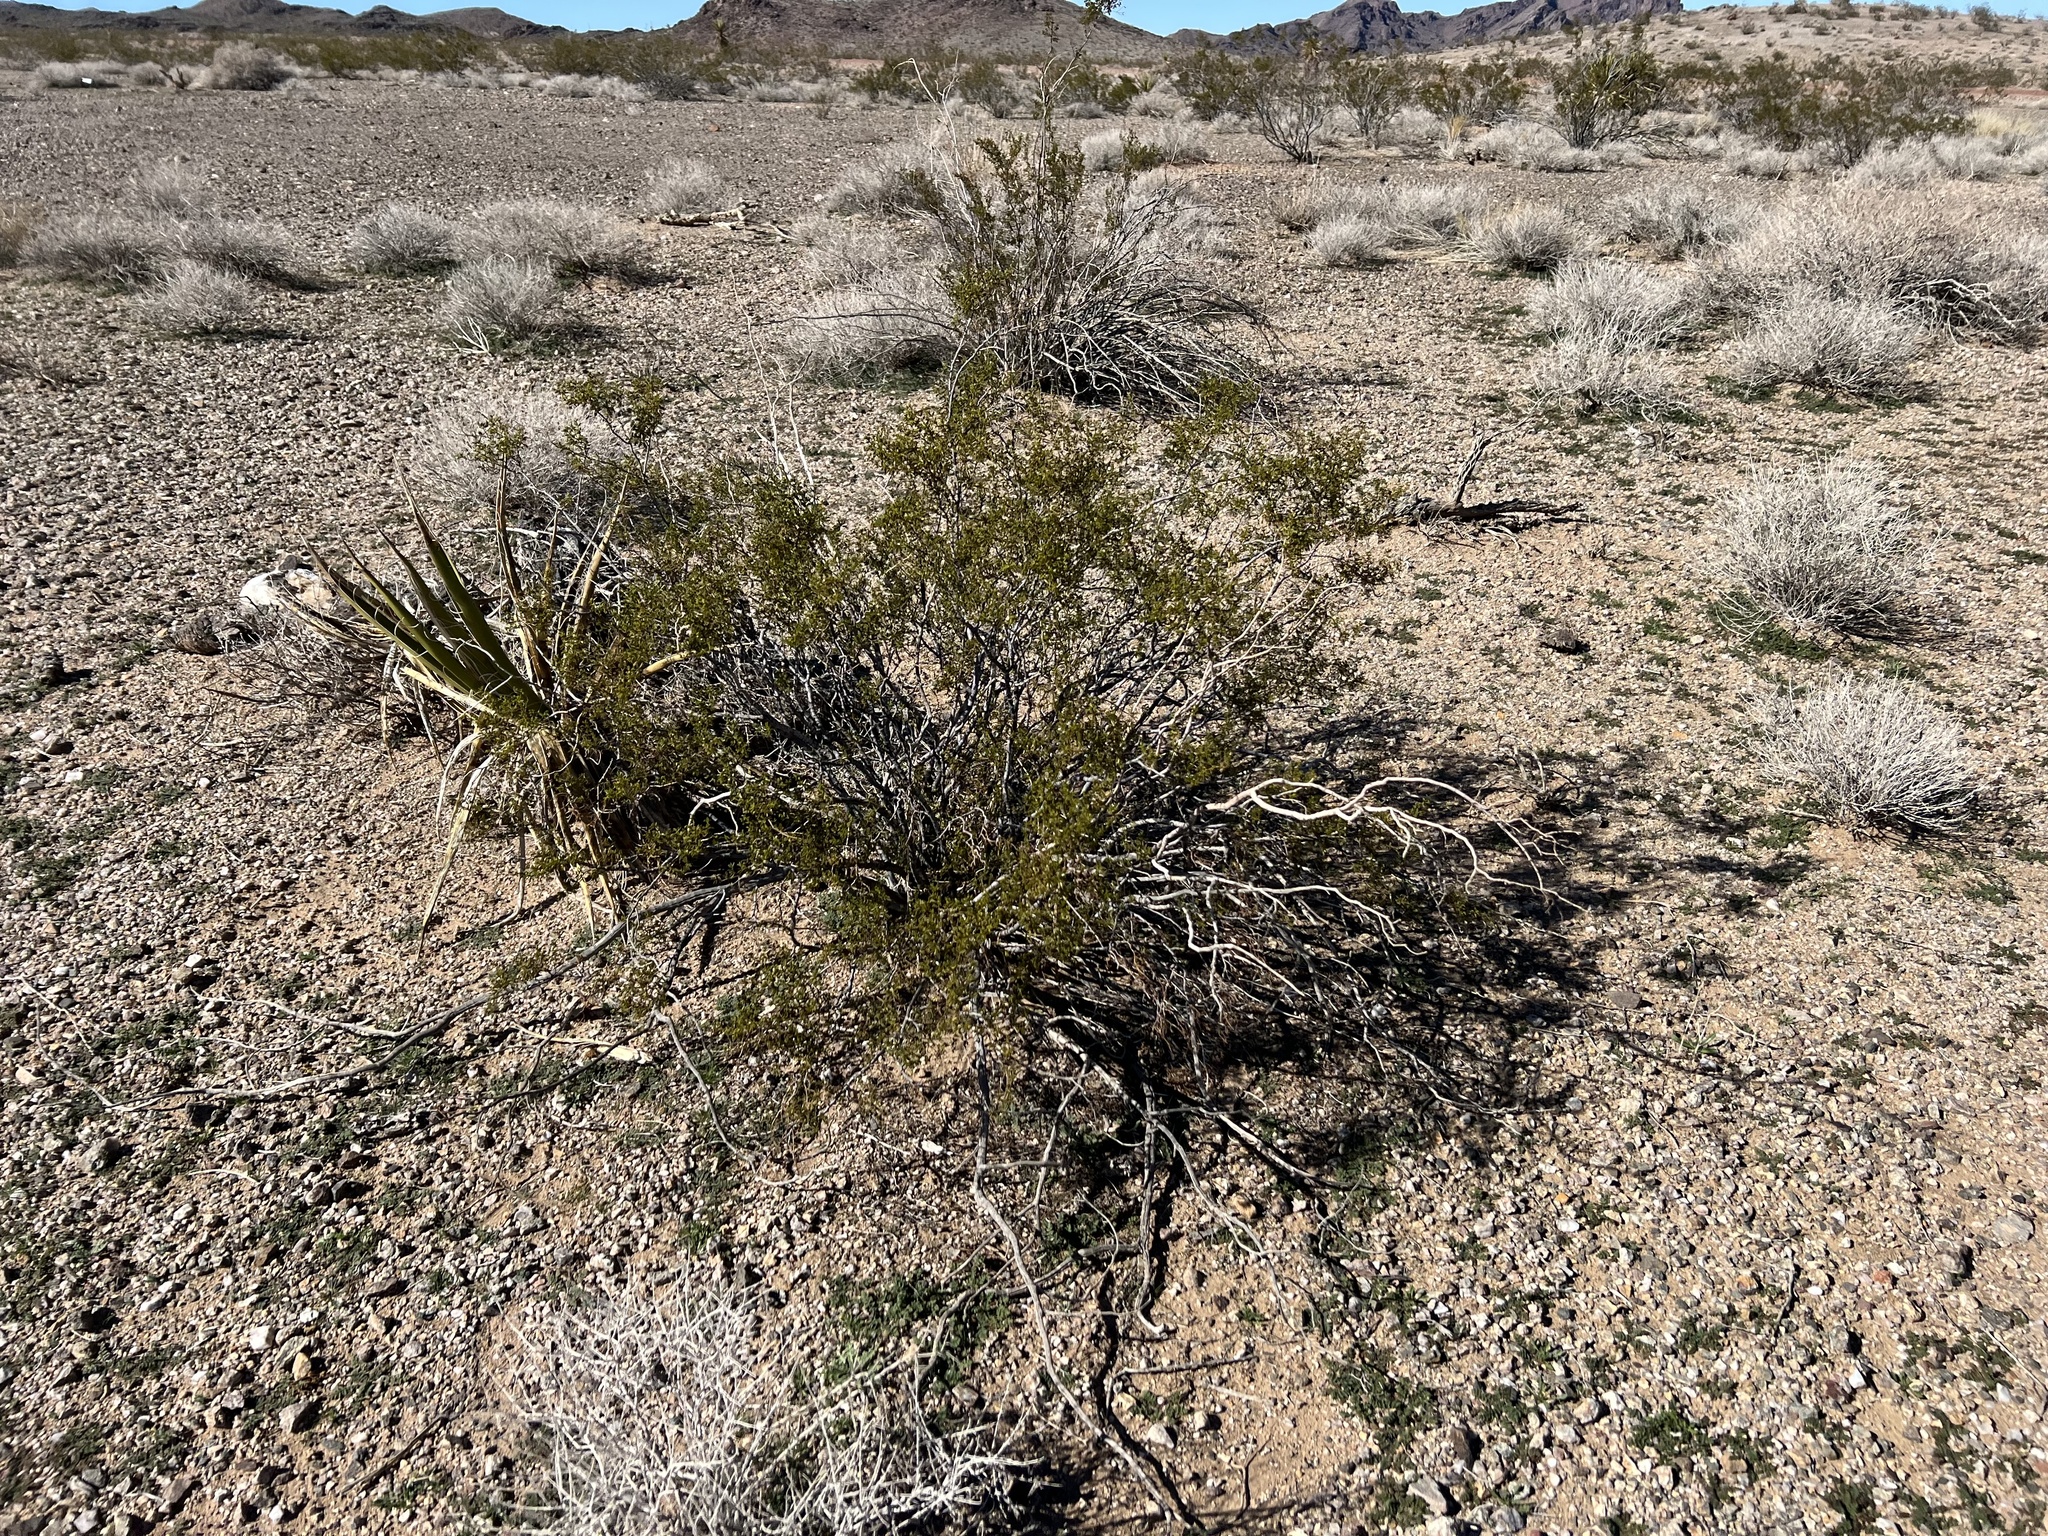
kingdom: Plantae
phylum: Tracheophyta
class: Magnoliopsida
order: Zygophyllales
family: Zygophyllaceae
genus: Larrea
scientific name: Larrea tridentata
